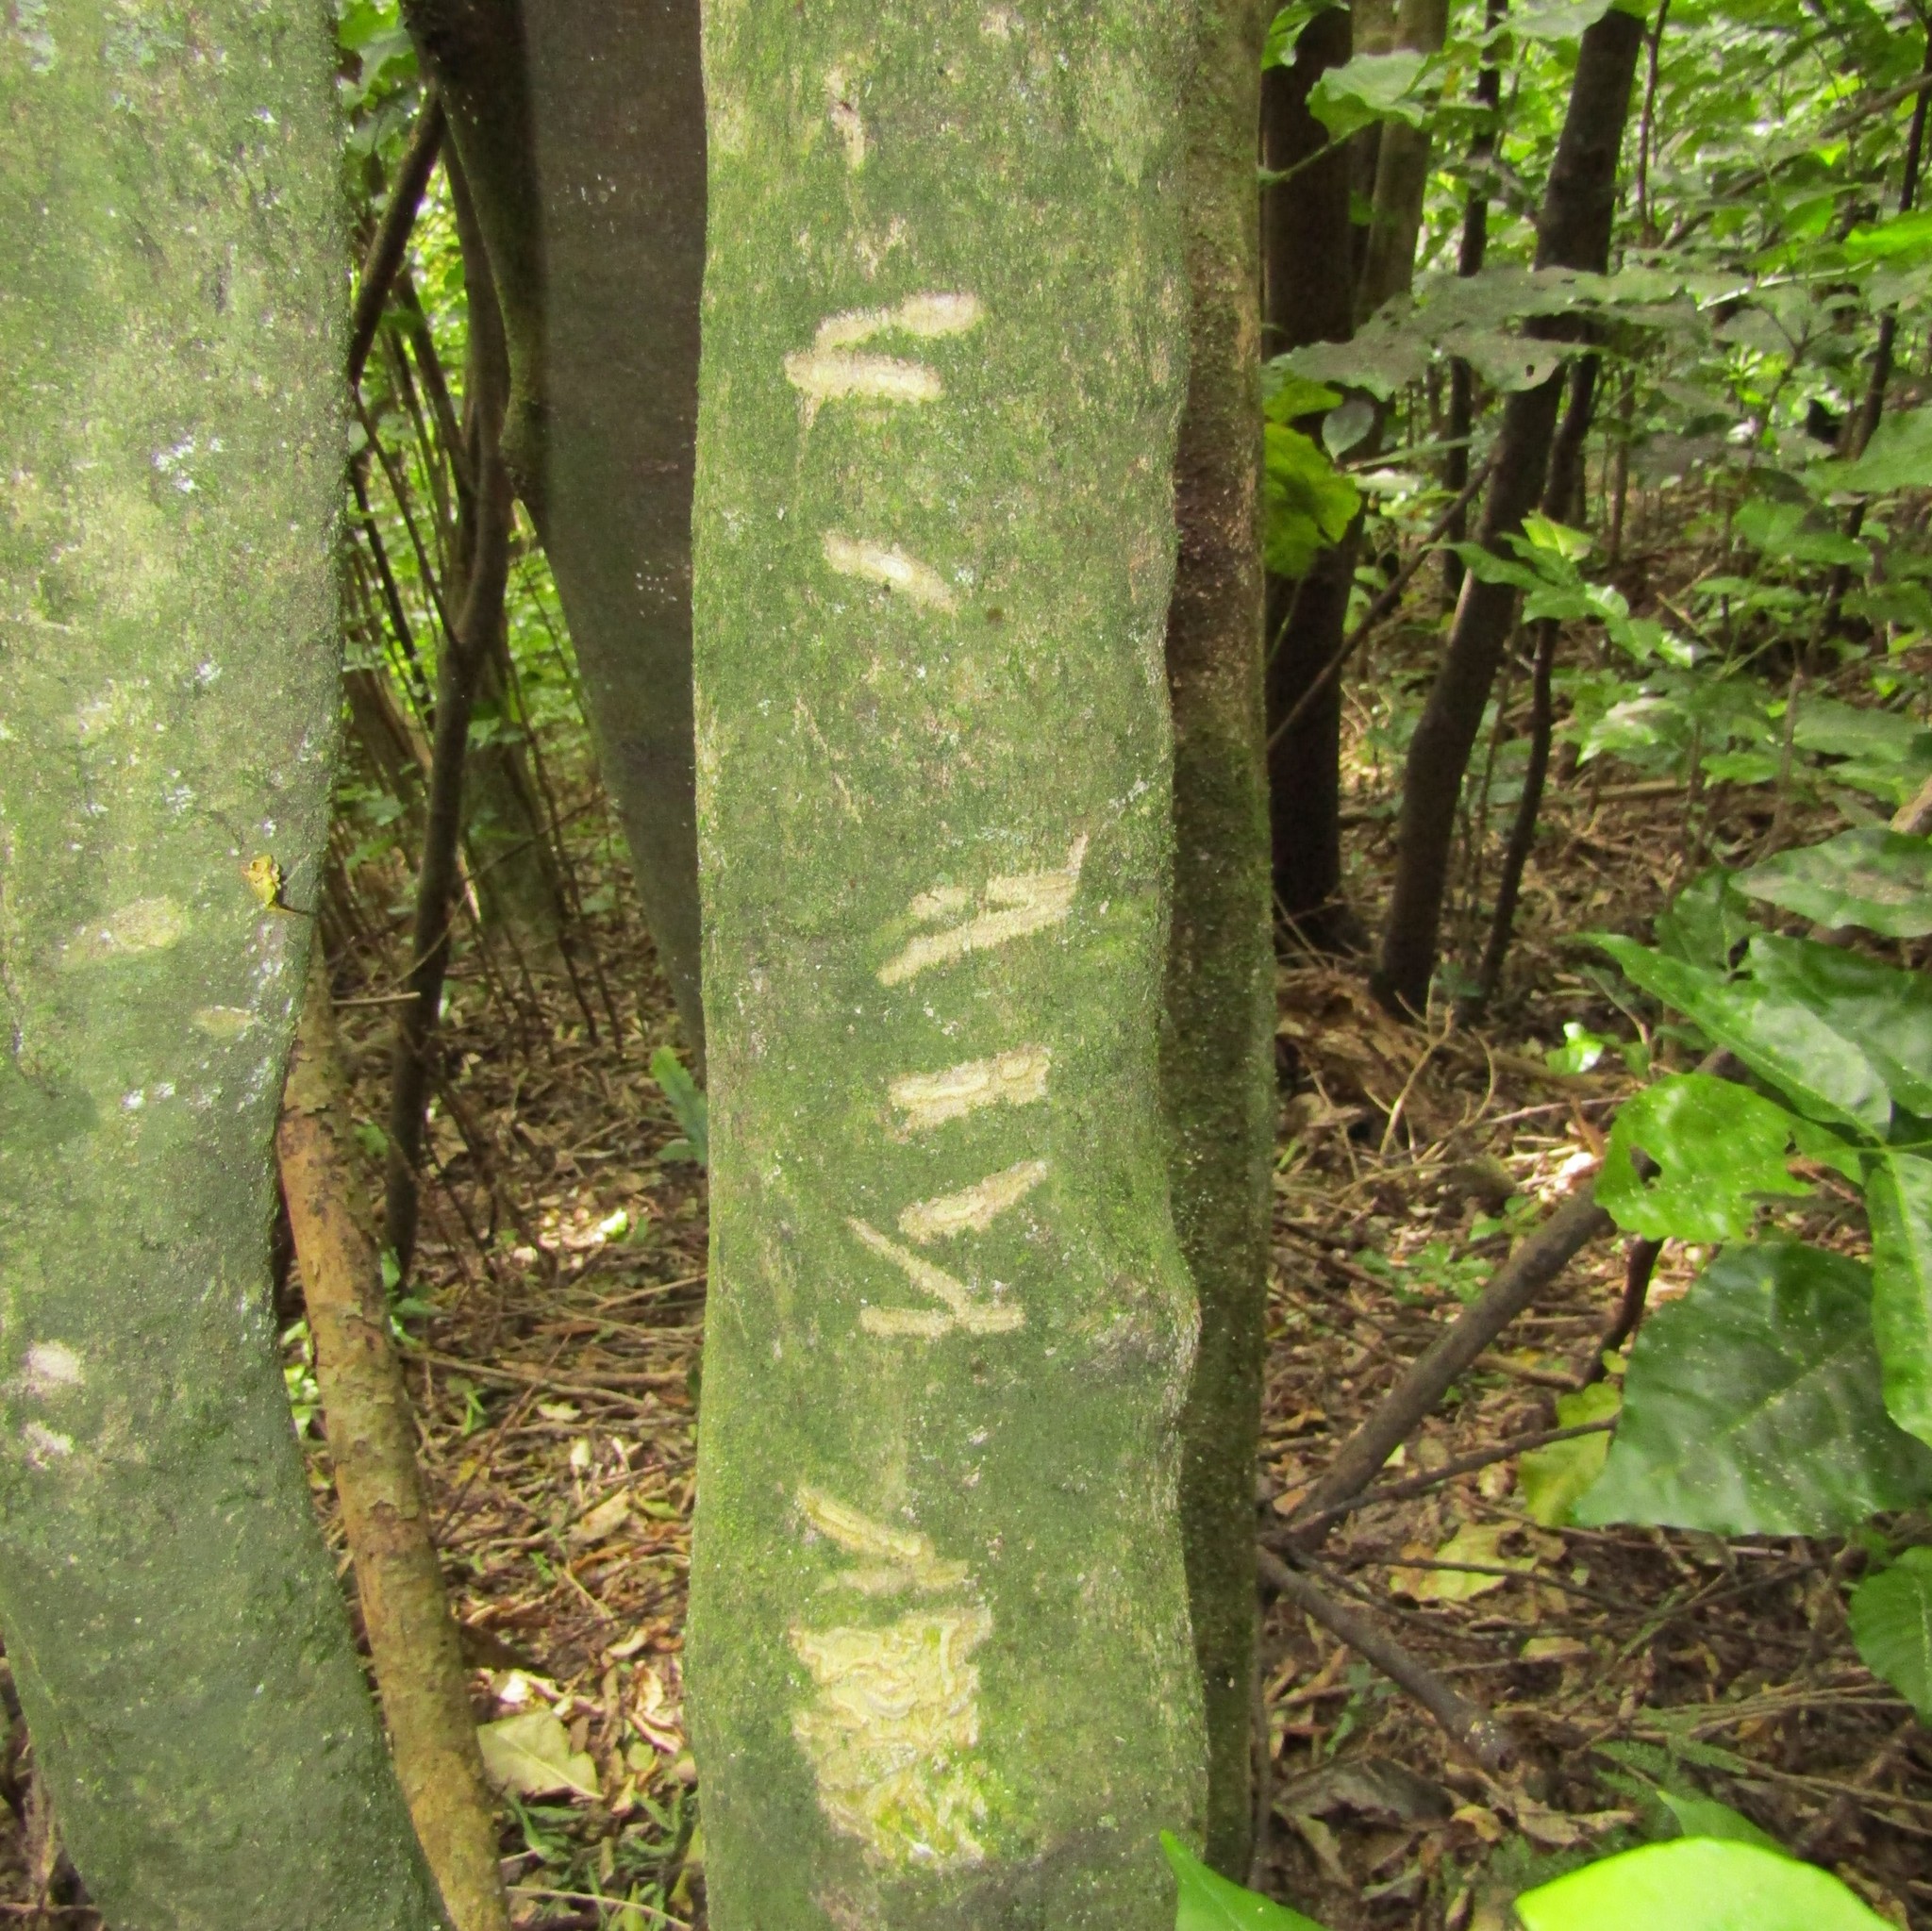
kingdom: Animalia
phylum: Chordata
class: Mammalia
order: Diprotodontia
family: Phalangeridae
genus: Trichosurus
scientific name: Trichosurus vulpecula
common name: Common brushtail
